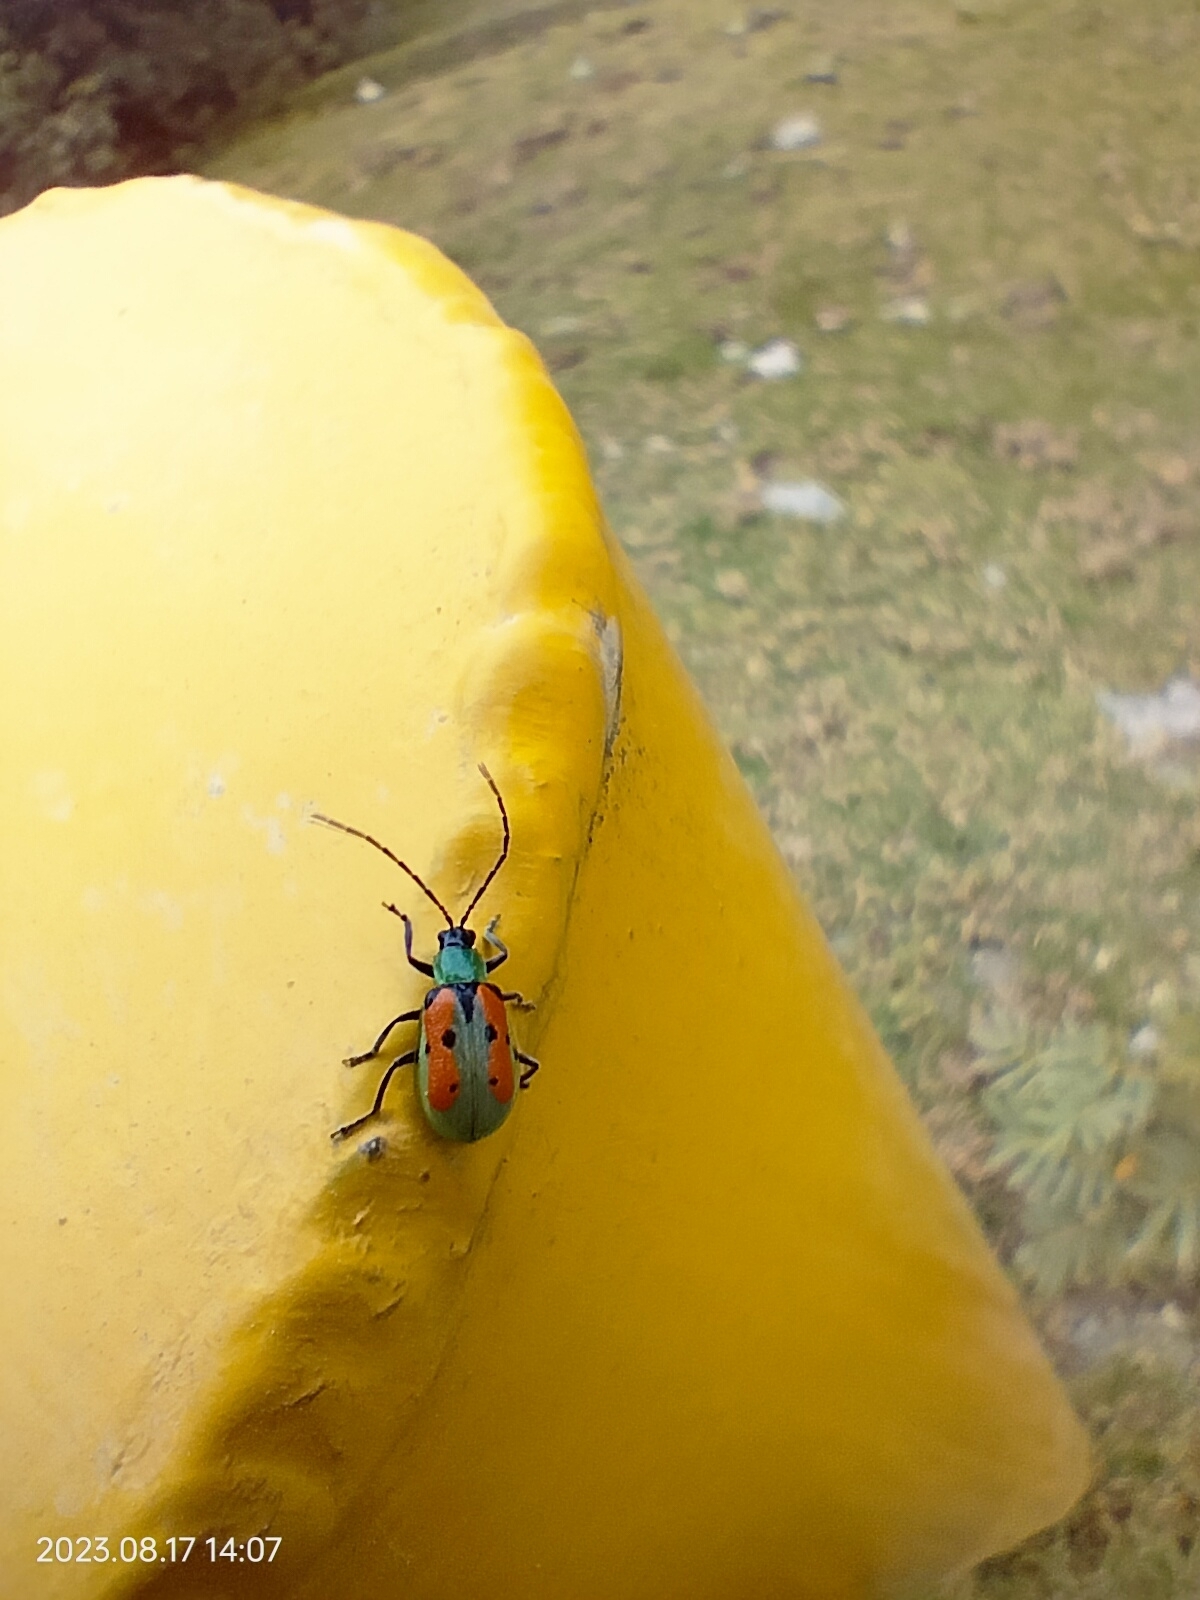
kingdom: Animalia
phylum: Arthropoda
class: Insecta
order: Coleoptera
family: Chrysomelidae
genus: Diabrotica
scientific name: Diabrotica decempunctata
